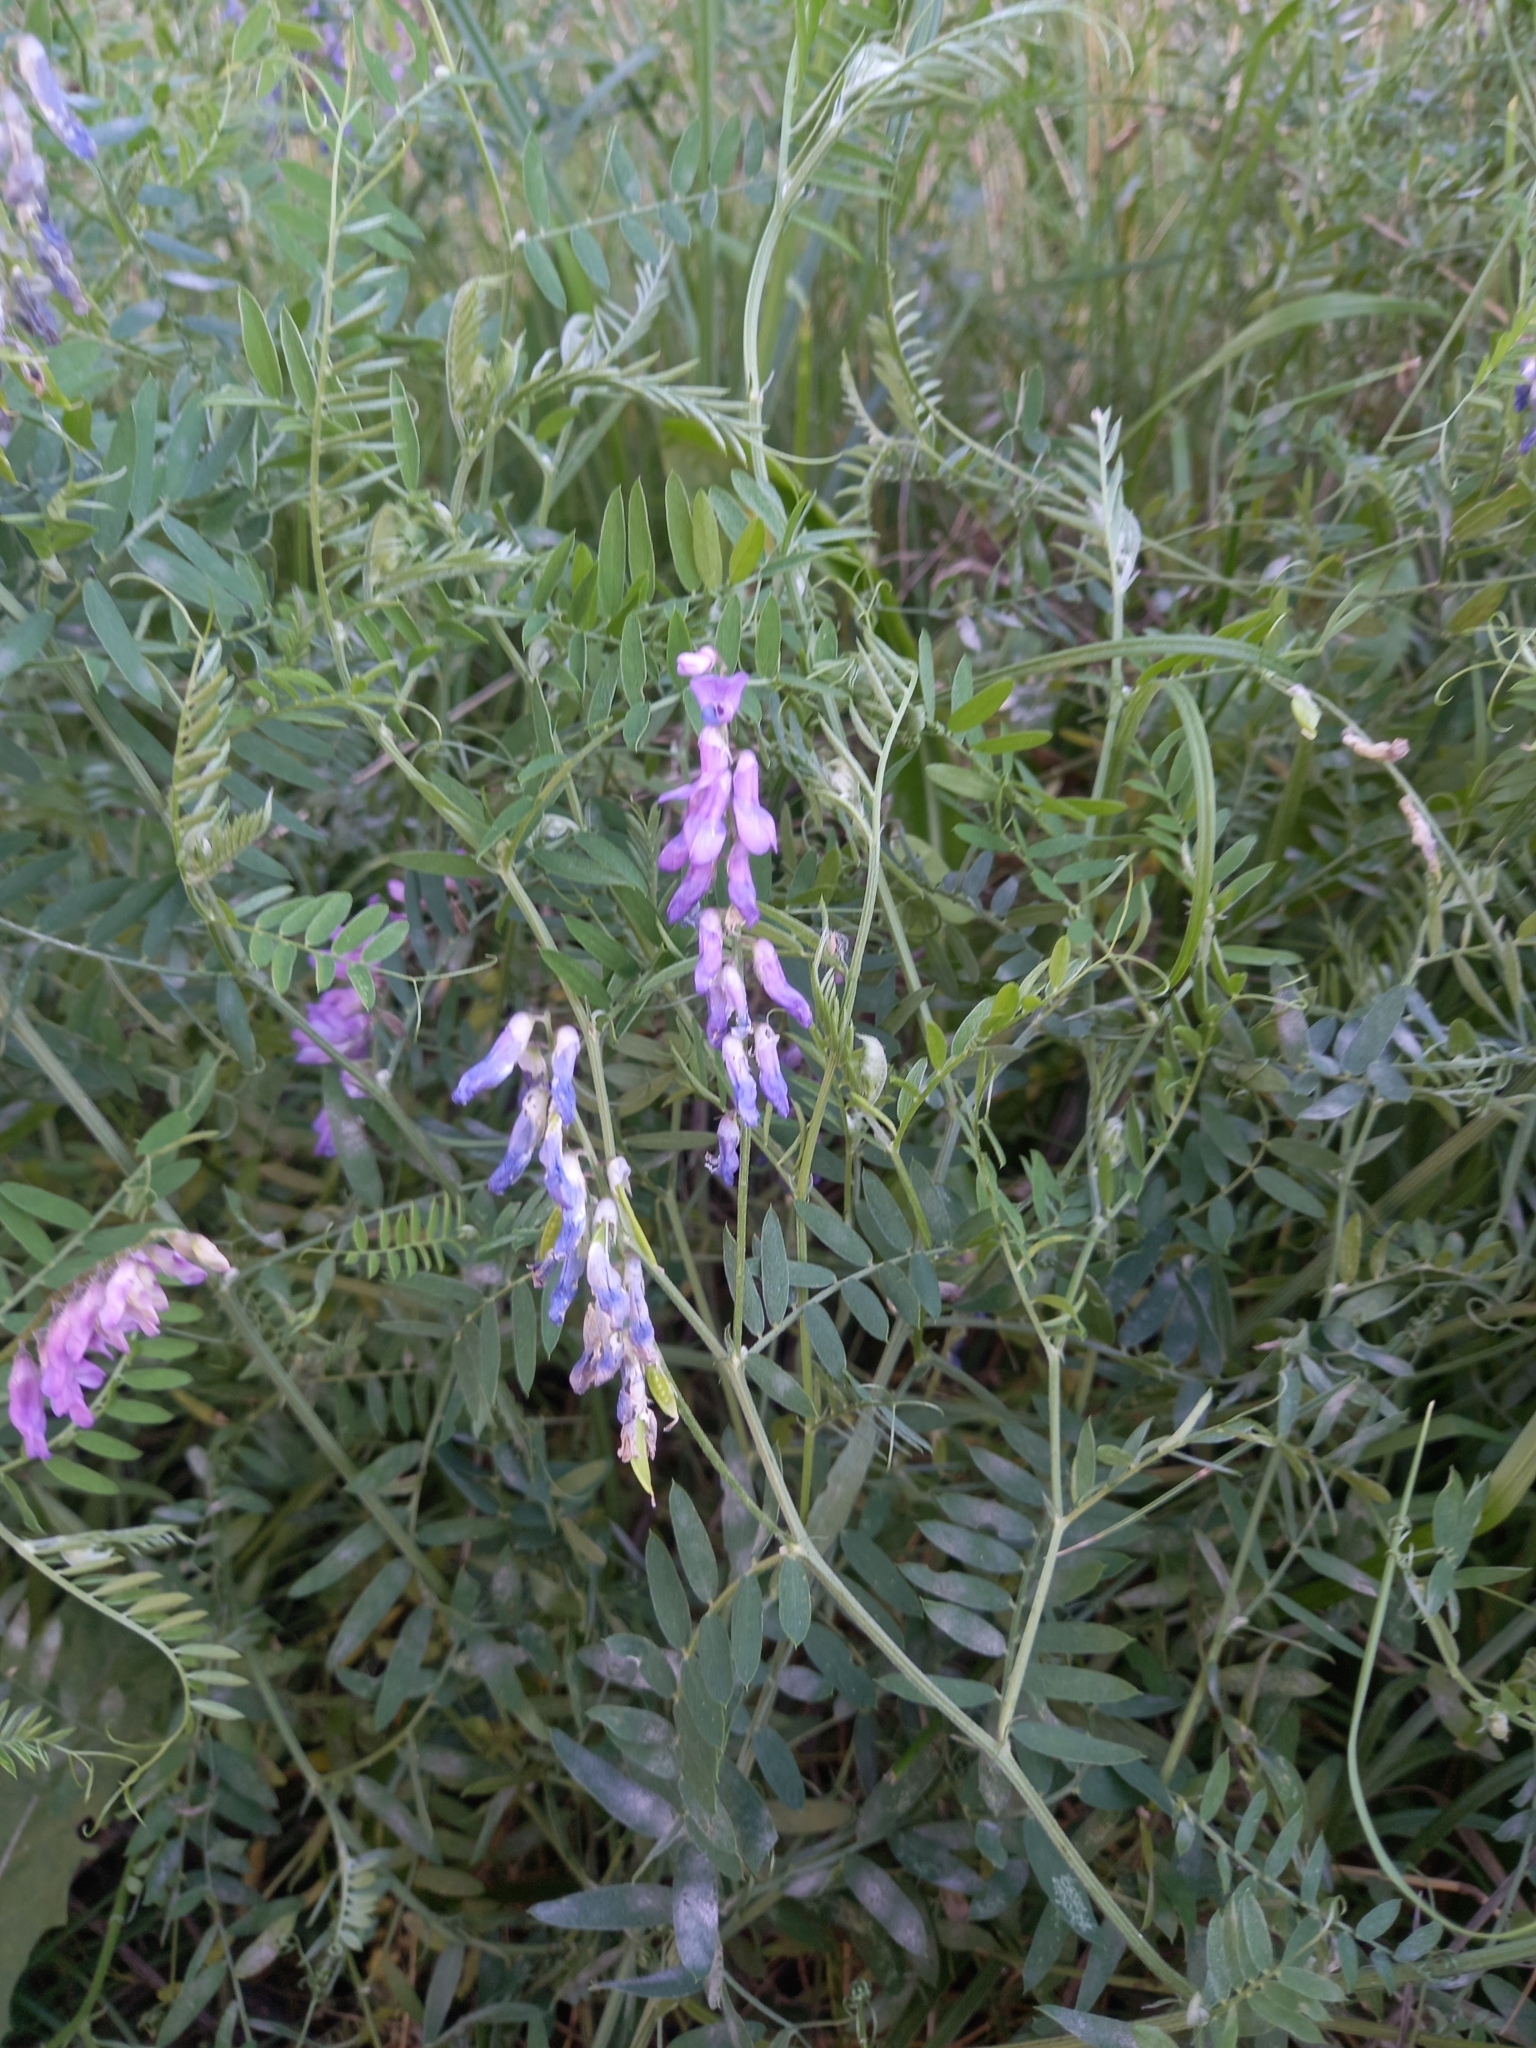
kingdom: Plantae
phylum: Tracheophyta
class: Magnoliopsida
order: Fabales
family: Fabaceae
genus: Vicia
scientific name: Vicia cracca
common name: Bird vetch
